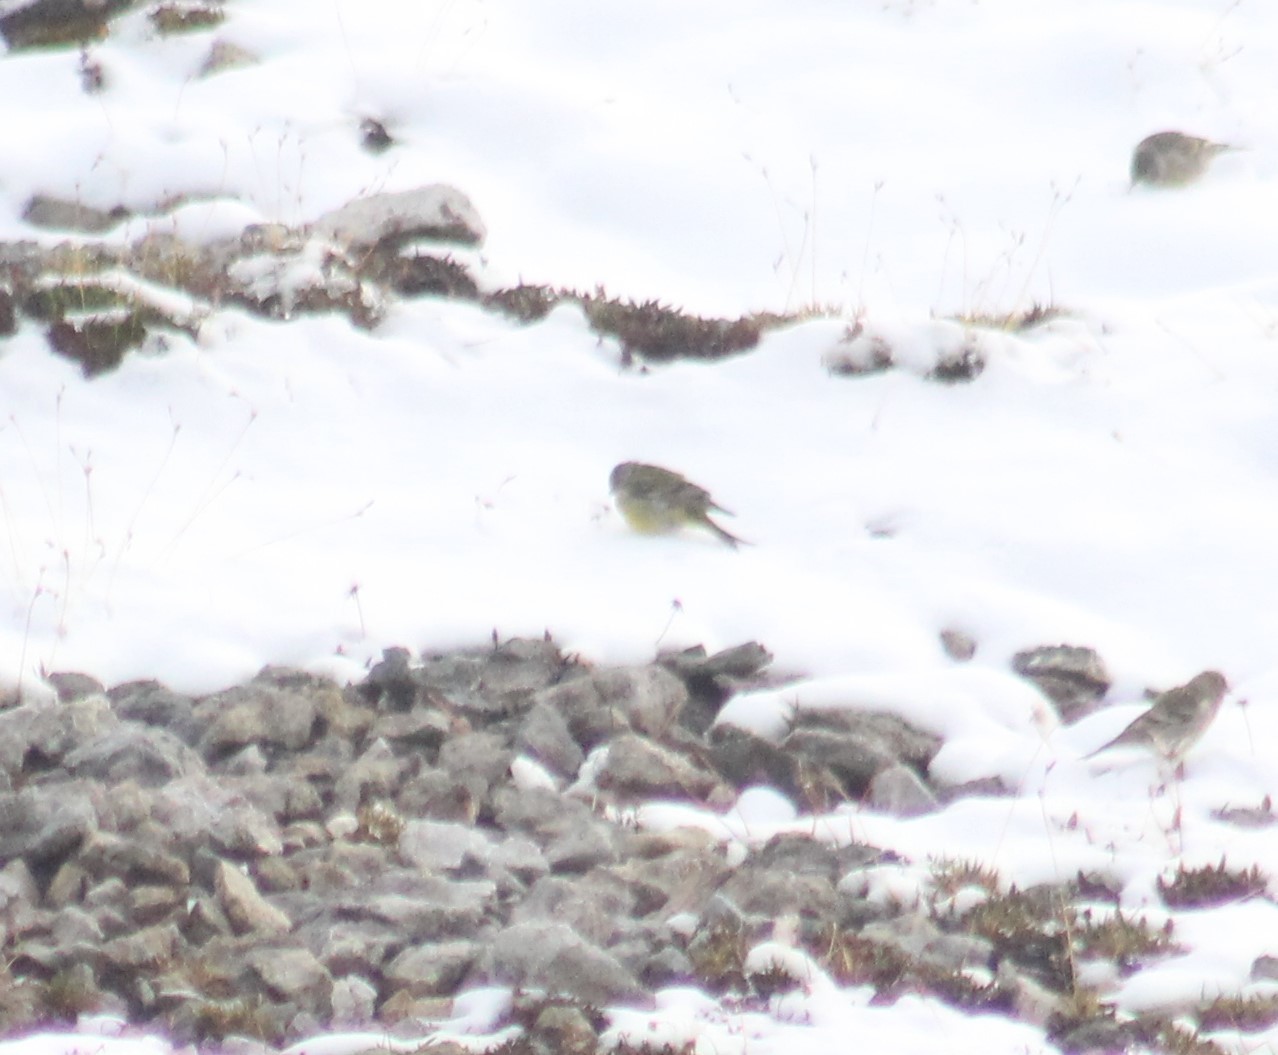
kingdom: Animalia
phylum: Chordata
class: Aves
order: Passeriformes
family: Fringillidae
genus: Carduelis
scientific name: Carduelis citrinella
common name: Citril finch
